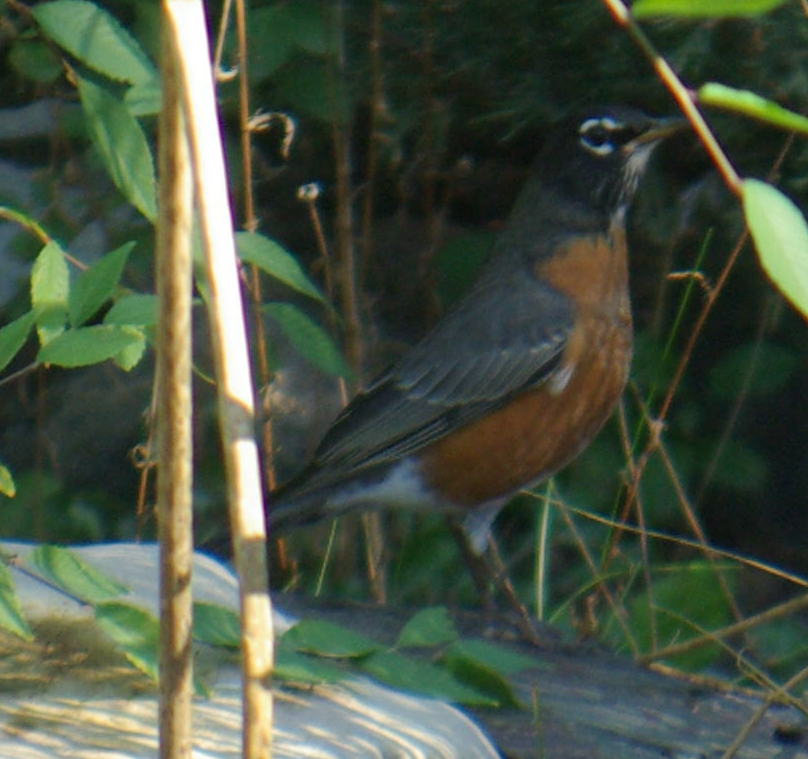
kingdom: Animalia
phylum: Chordata
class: Aves
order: Passeriformes
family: Turdidae
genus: Turdus
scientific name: Turdus migratorius
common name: American robin
